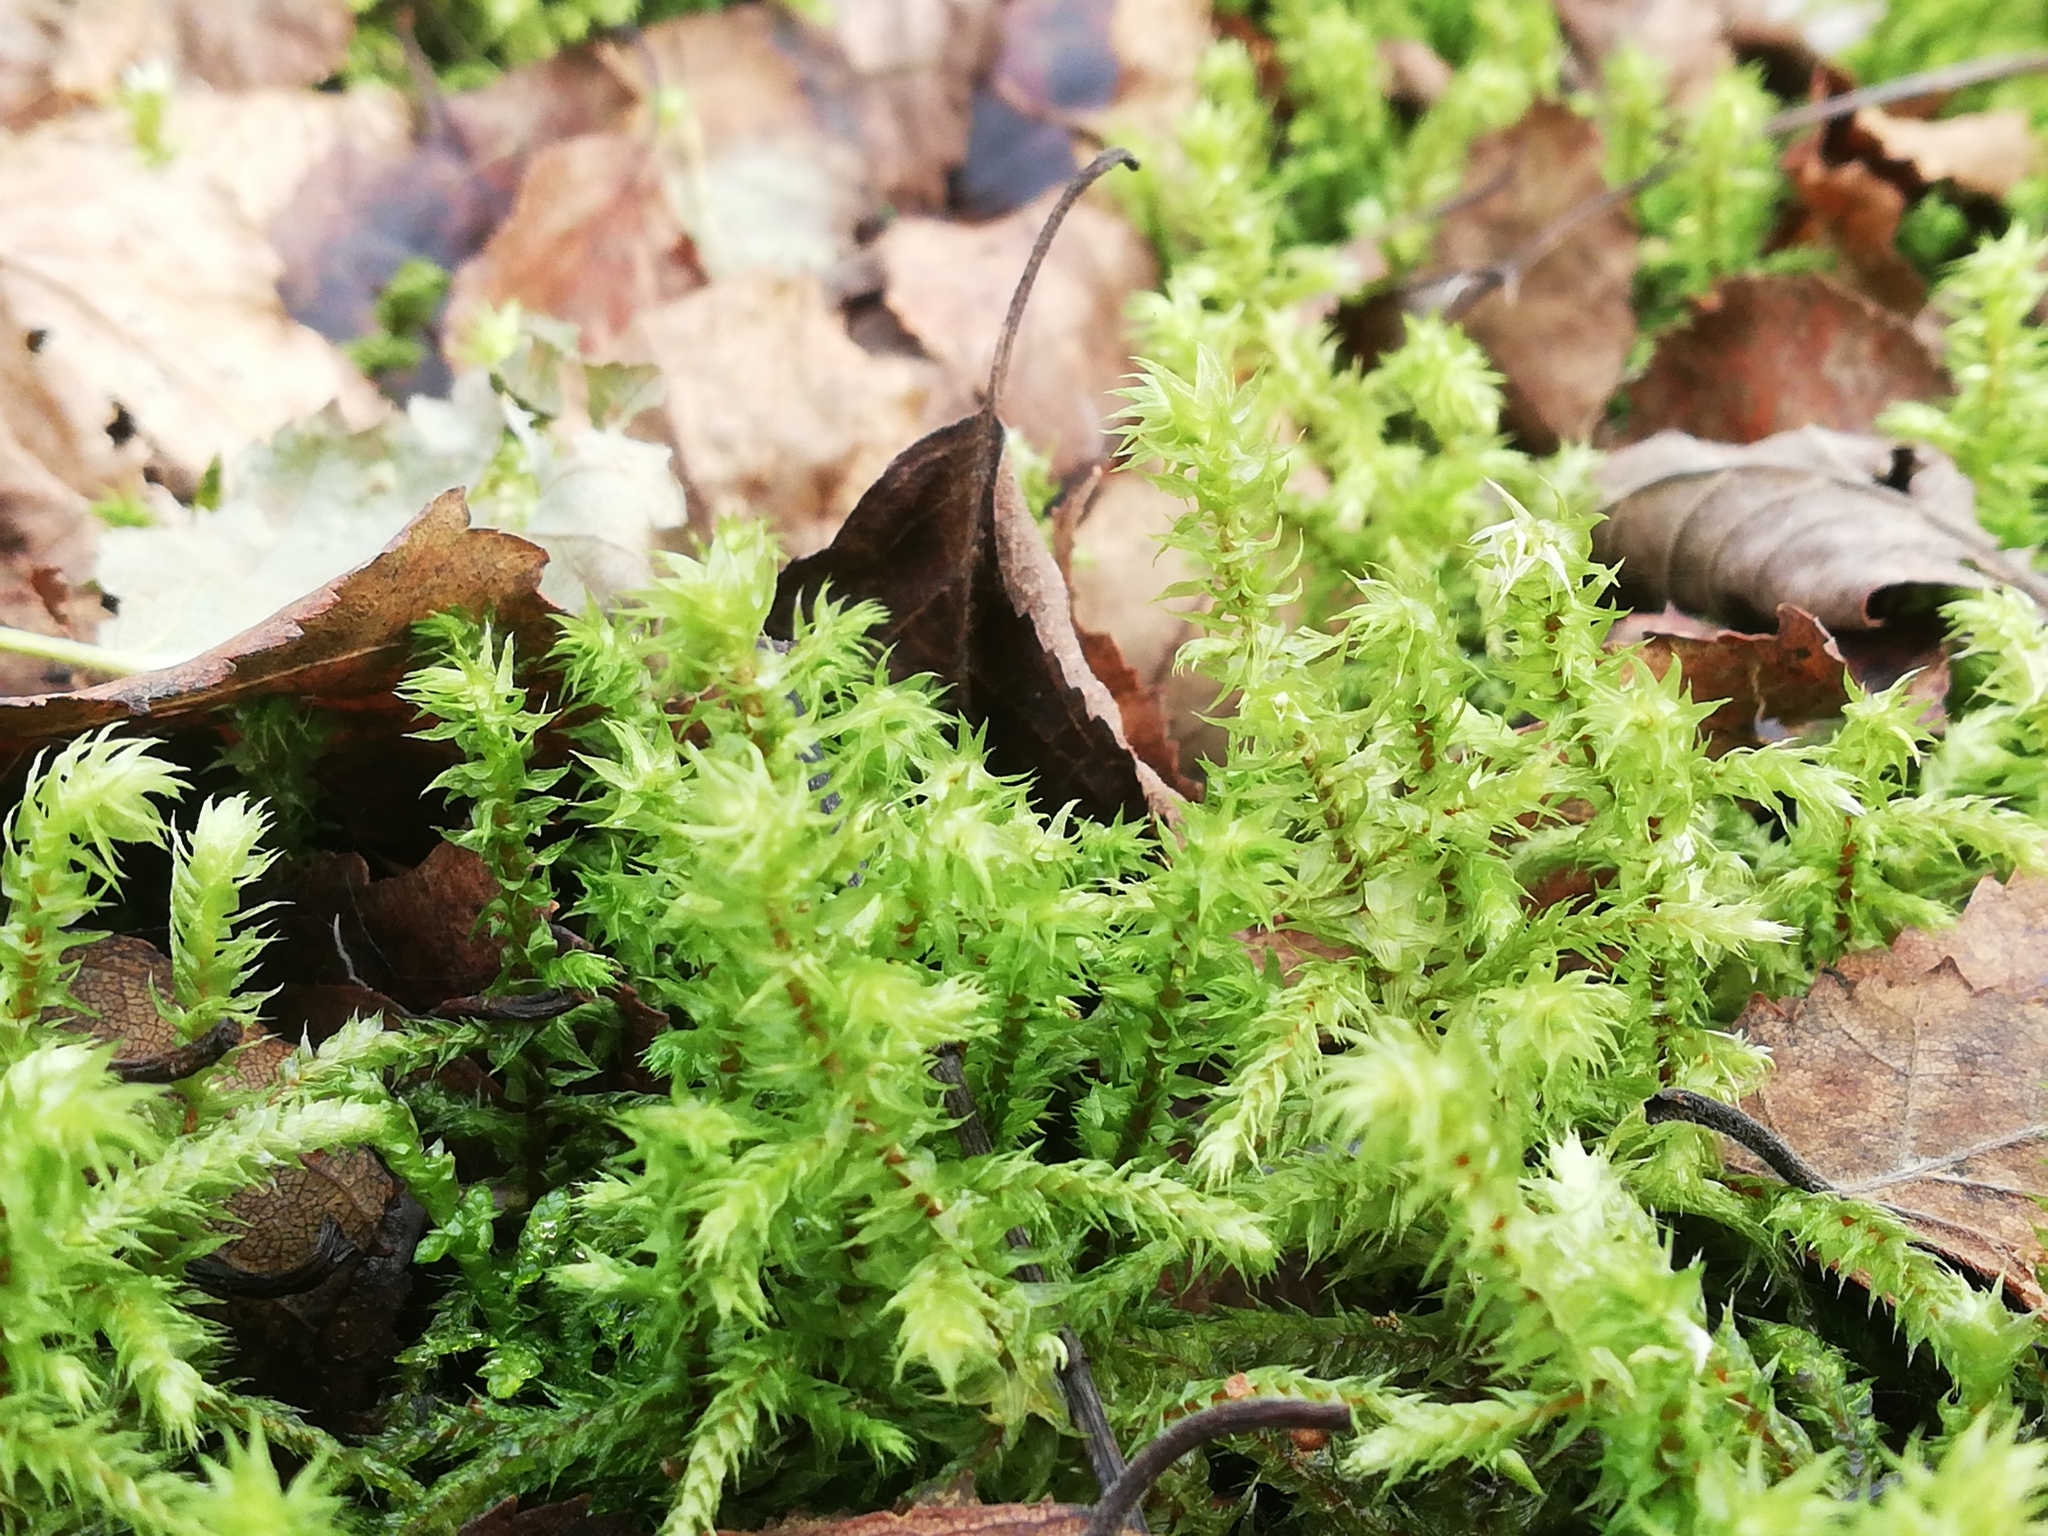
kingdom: Plantae
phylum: Bryophyta
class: Bryopsida
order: Hypnales
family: Hylocomiaceae
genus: Hylocomiadelphus
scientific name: Hylocomiadelphus triquetrus
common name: Rough goose neck moss
